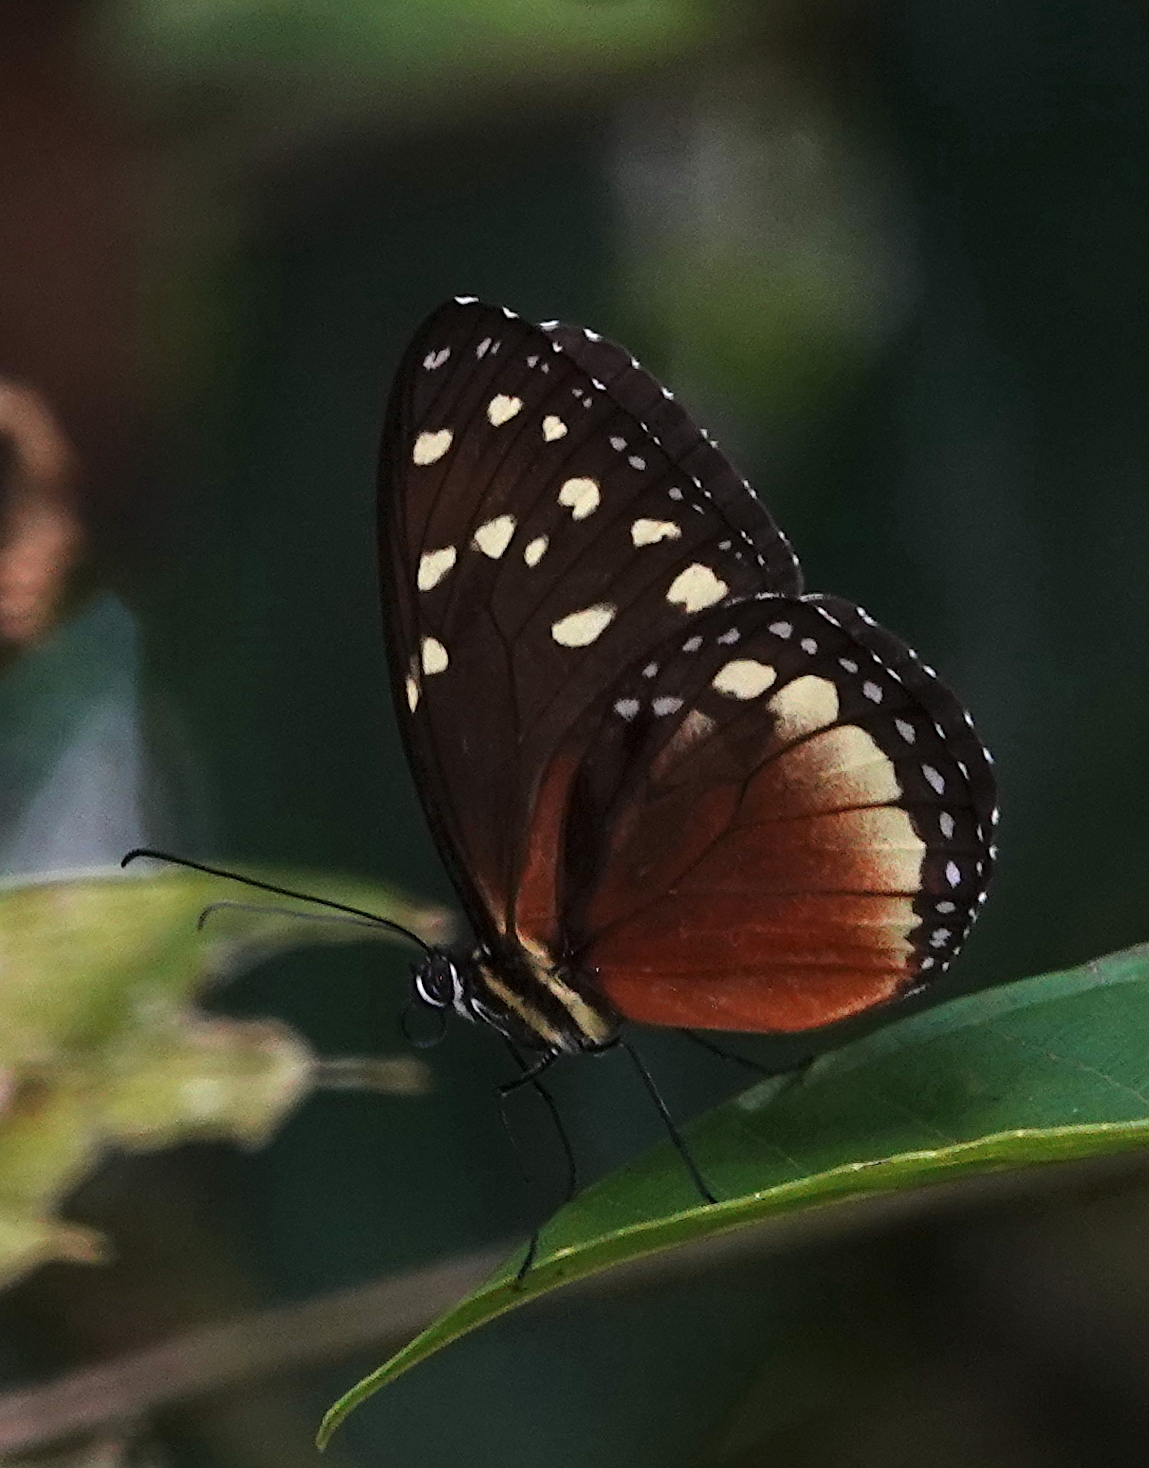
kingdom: Animalia
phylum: Arthropoda
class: Insecta
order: Lepidoptera
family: Nymphalidae
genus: Tithorea
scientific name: Tithorea tarricina
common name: Cream-spotted tigerwing
